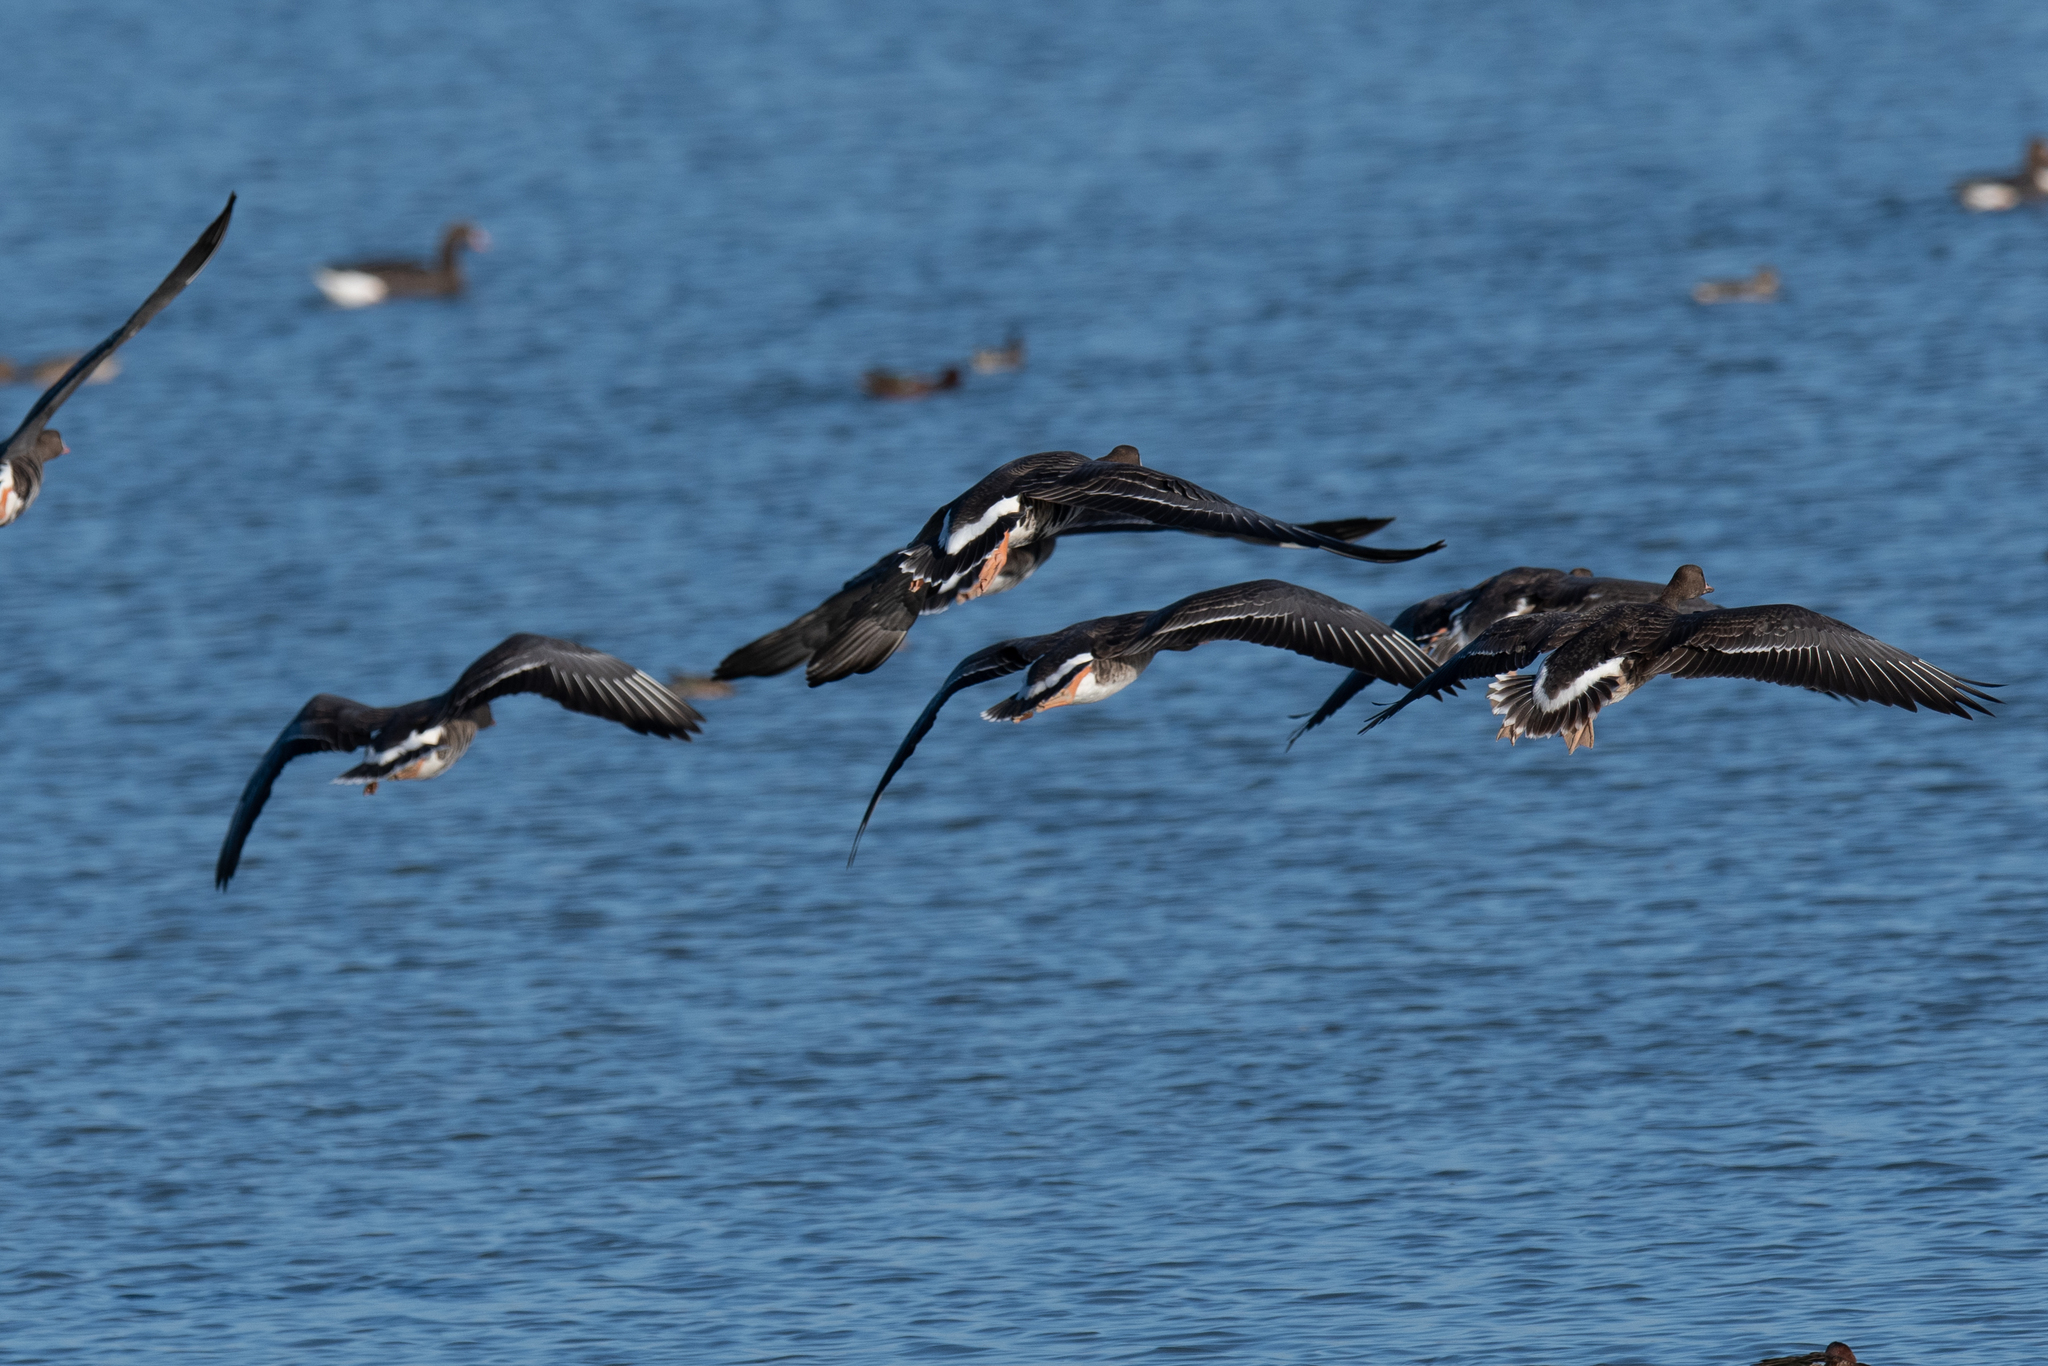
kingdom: Animalia
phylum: Chordata
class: Aves
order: Anseriformes
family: Anatidae
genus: Anser
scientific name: Anser albifrons
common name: Greater white-fronted goose
